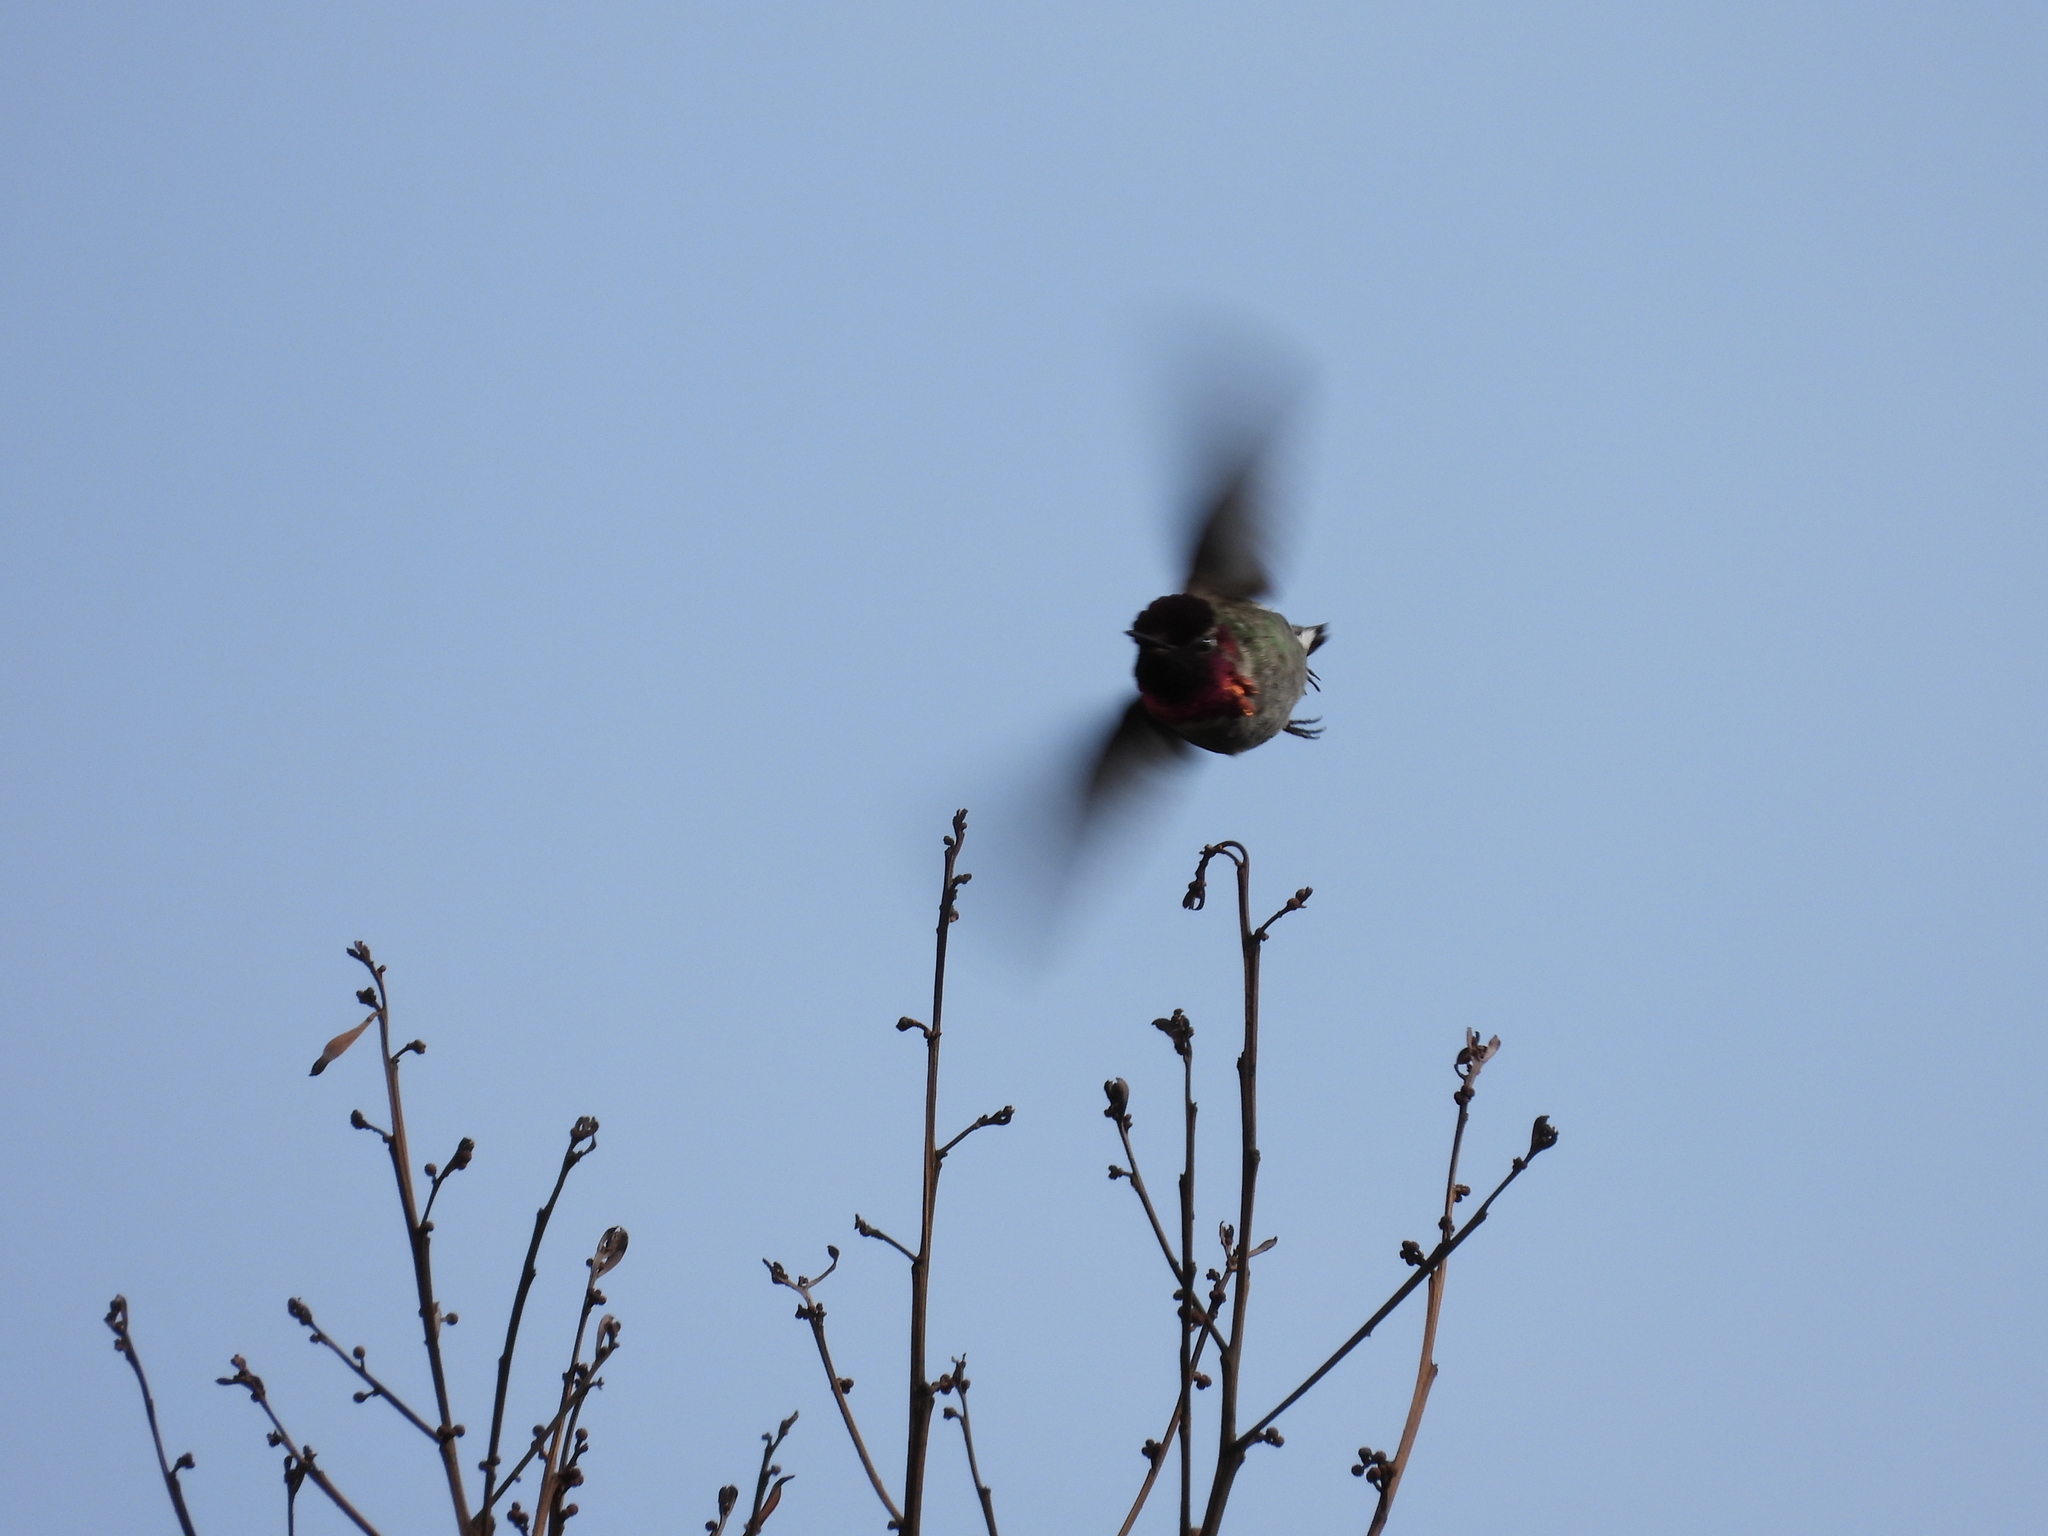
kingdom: Animalia
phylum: Chordata
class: Aves
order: Apodiformes
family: Trochilidae
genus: Calypte
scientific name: Calypte anna
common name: Anna's hummingbird
